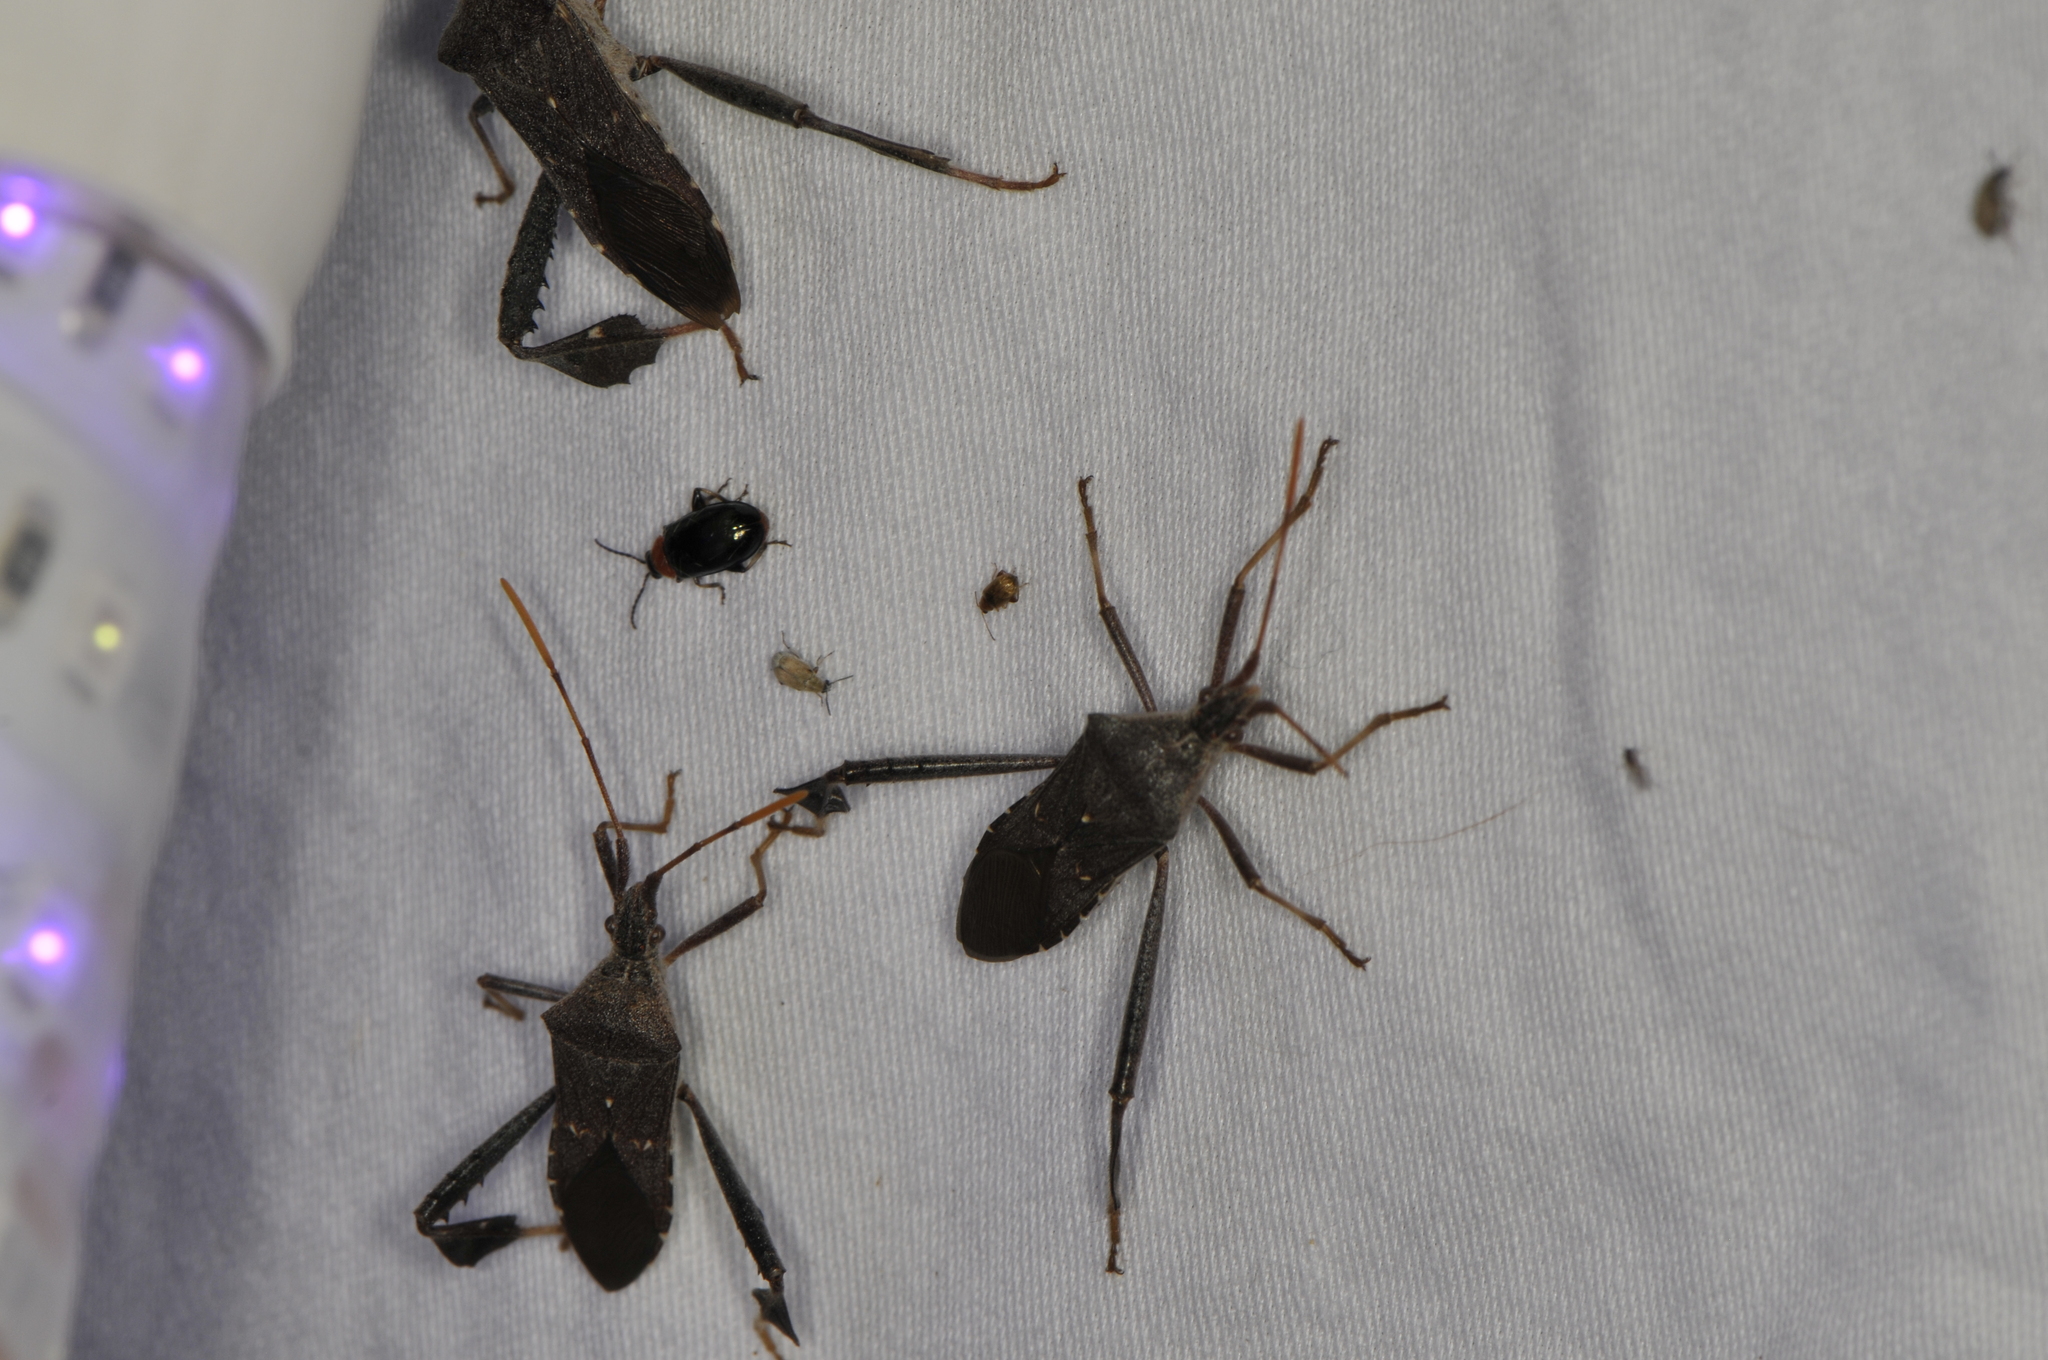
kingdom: Animalia
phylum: Arthropoda
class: Insecta
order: Hemiptera
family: Coreidae
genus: Leptoglossus
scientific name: Leptoglossus oppositus
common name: Northern leaf-footed bug
